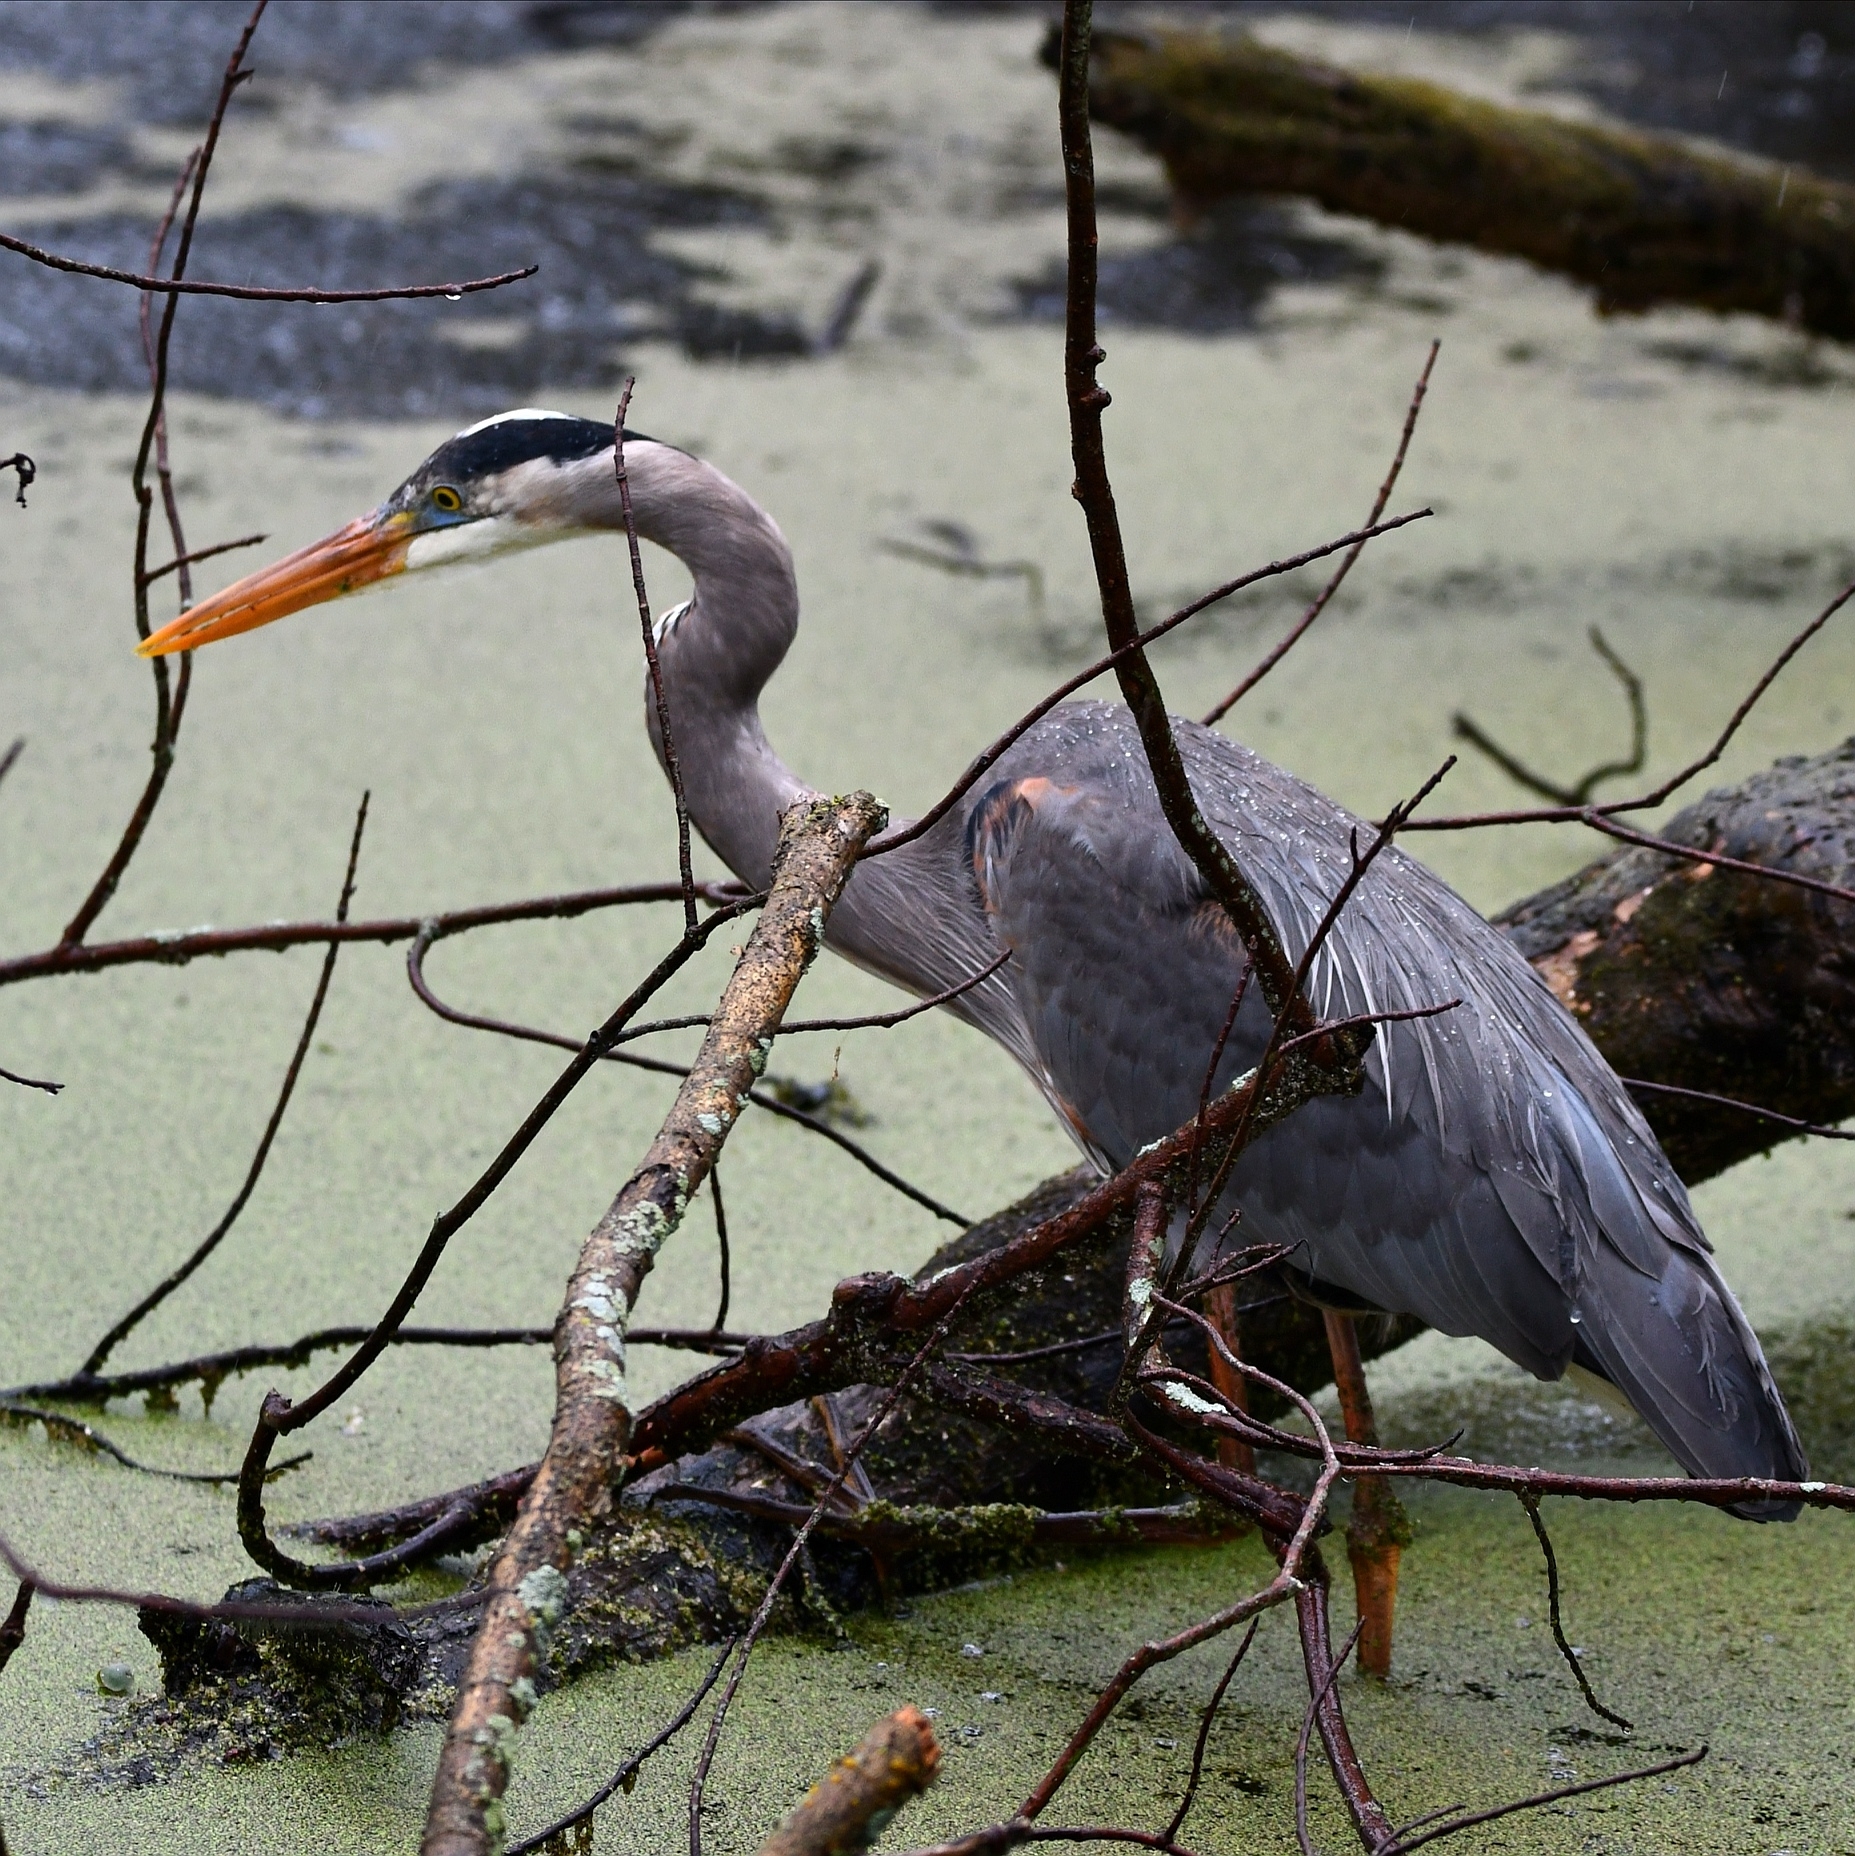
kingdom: Animalia
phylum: Chordata
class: Aves
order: Pelecaniformes
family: Ardeidae
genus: Ardea
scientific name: Ardea herodias
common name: Great blue heron
